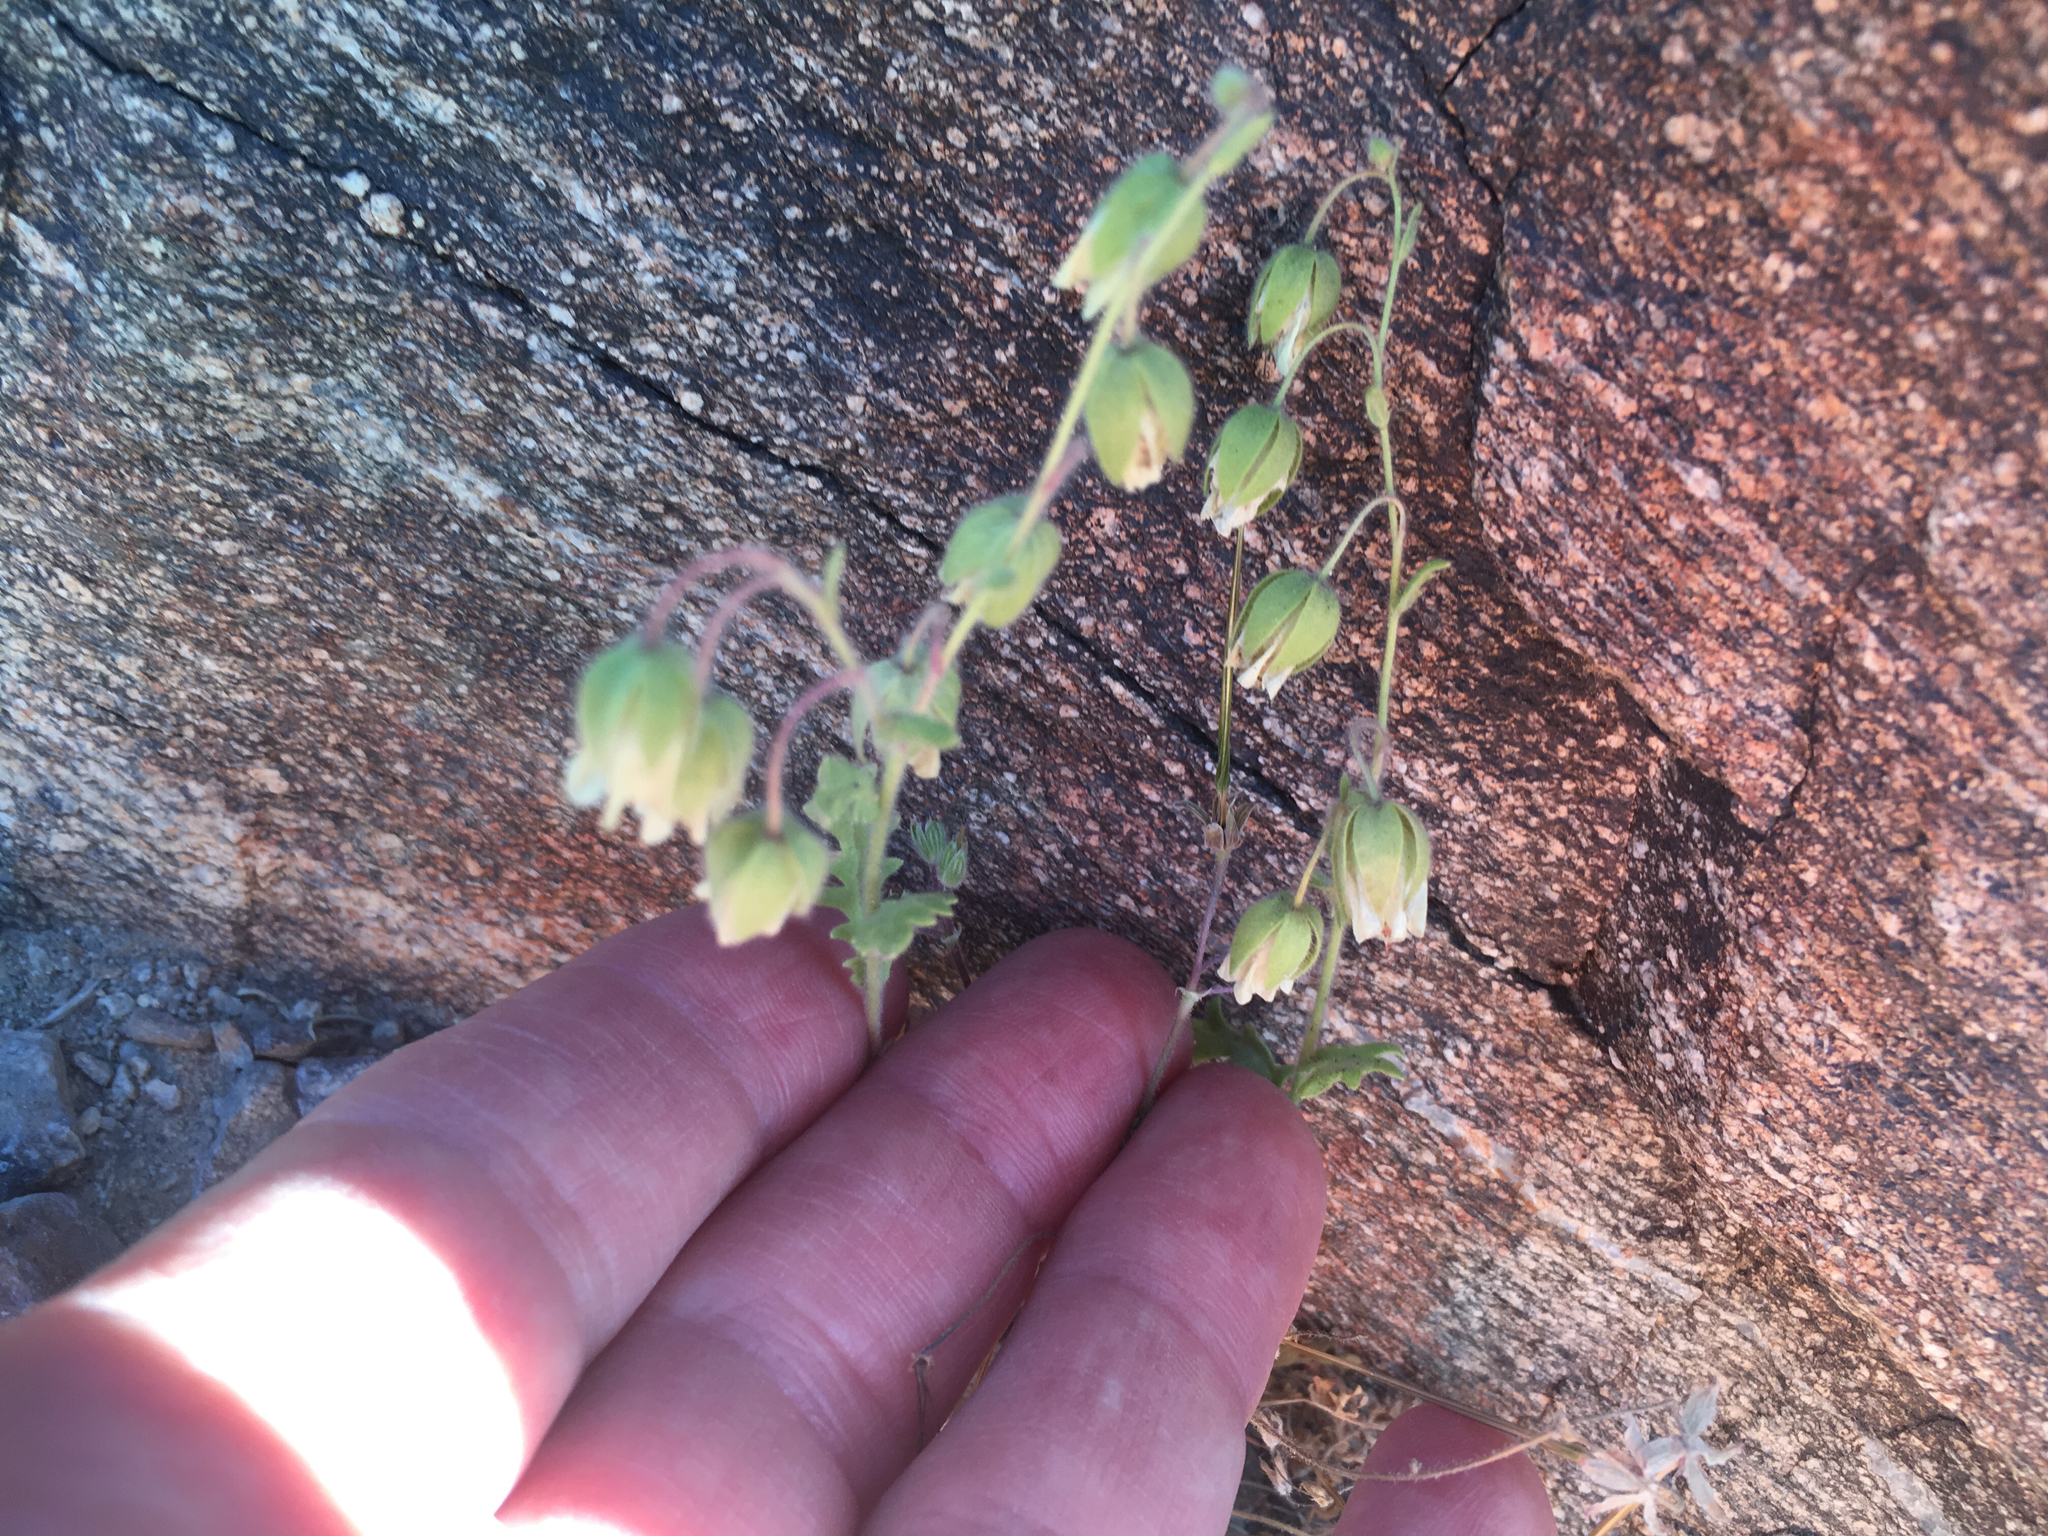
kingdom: Plantae
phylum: Tracheophyta
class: Magnoliopsida
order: Boraginales
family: Hydrophyllaceae
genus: Emmenanthe
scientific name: Emmenanthe penduliflora
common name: Whispering-bells
